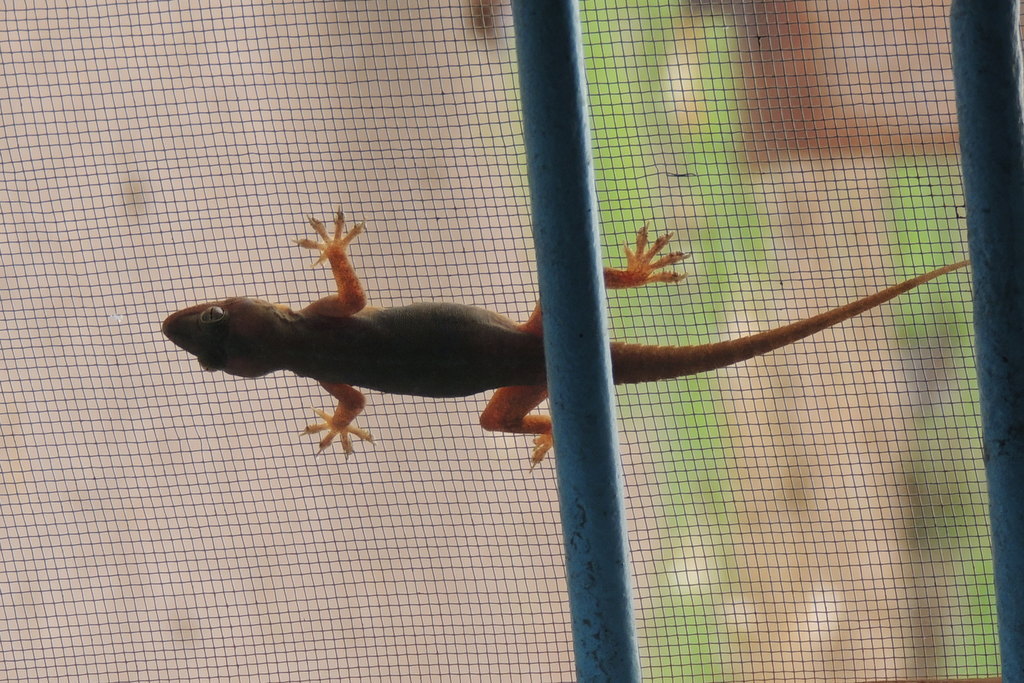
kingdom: Animalia
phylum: Chordata
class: Squamata
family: Gekkonidae
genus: Hemidactylus
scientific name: Hemidactylus flaviviridis
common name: Northern house gecko
